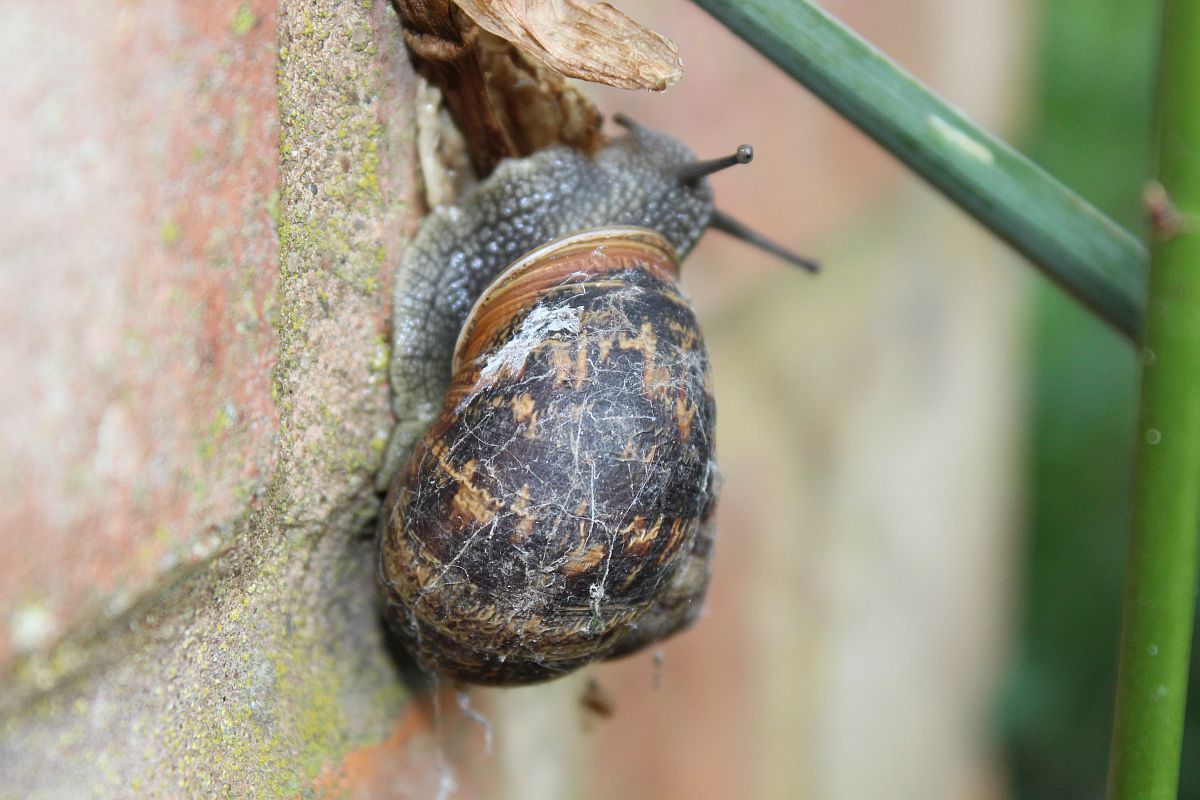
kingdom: Animalia
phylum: Mollusca
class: Gastropoda
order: Stylommatophora
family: Helicidae
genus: Cornu
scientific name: Cornu aspersum
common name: Brown garden snail
